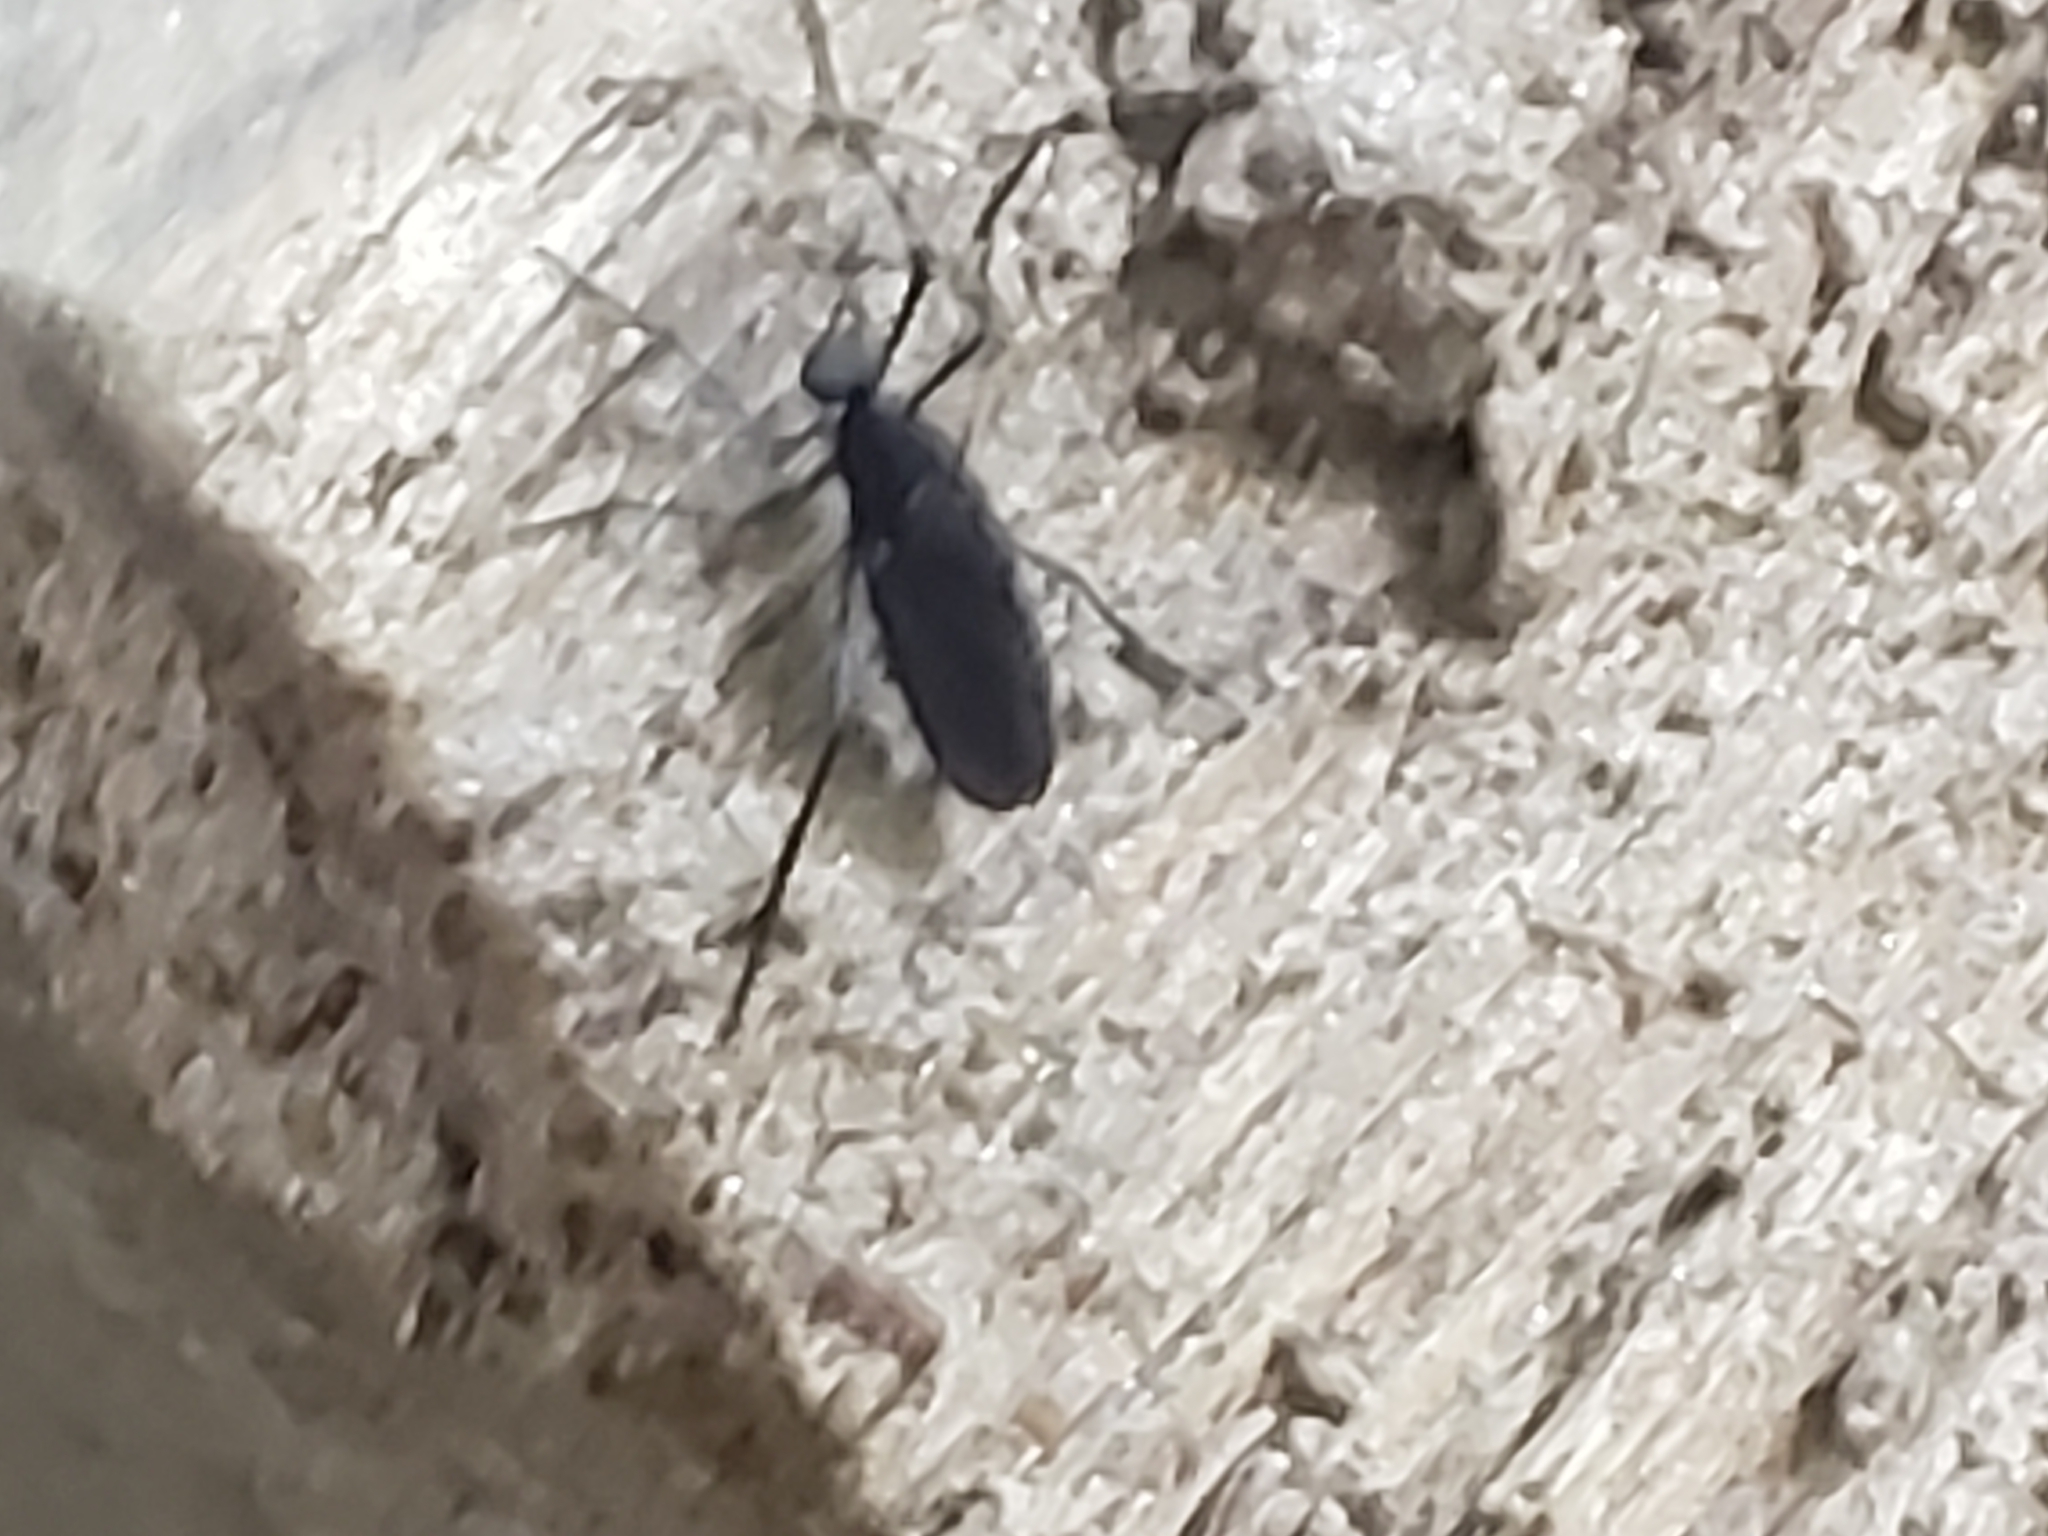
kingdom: Animalia
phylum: Arthropoda
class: Insecta
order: Diptera
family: Bibionidae
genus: Penthetria
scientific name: Penthetria heteroptera
